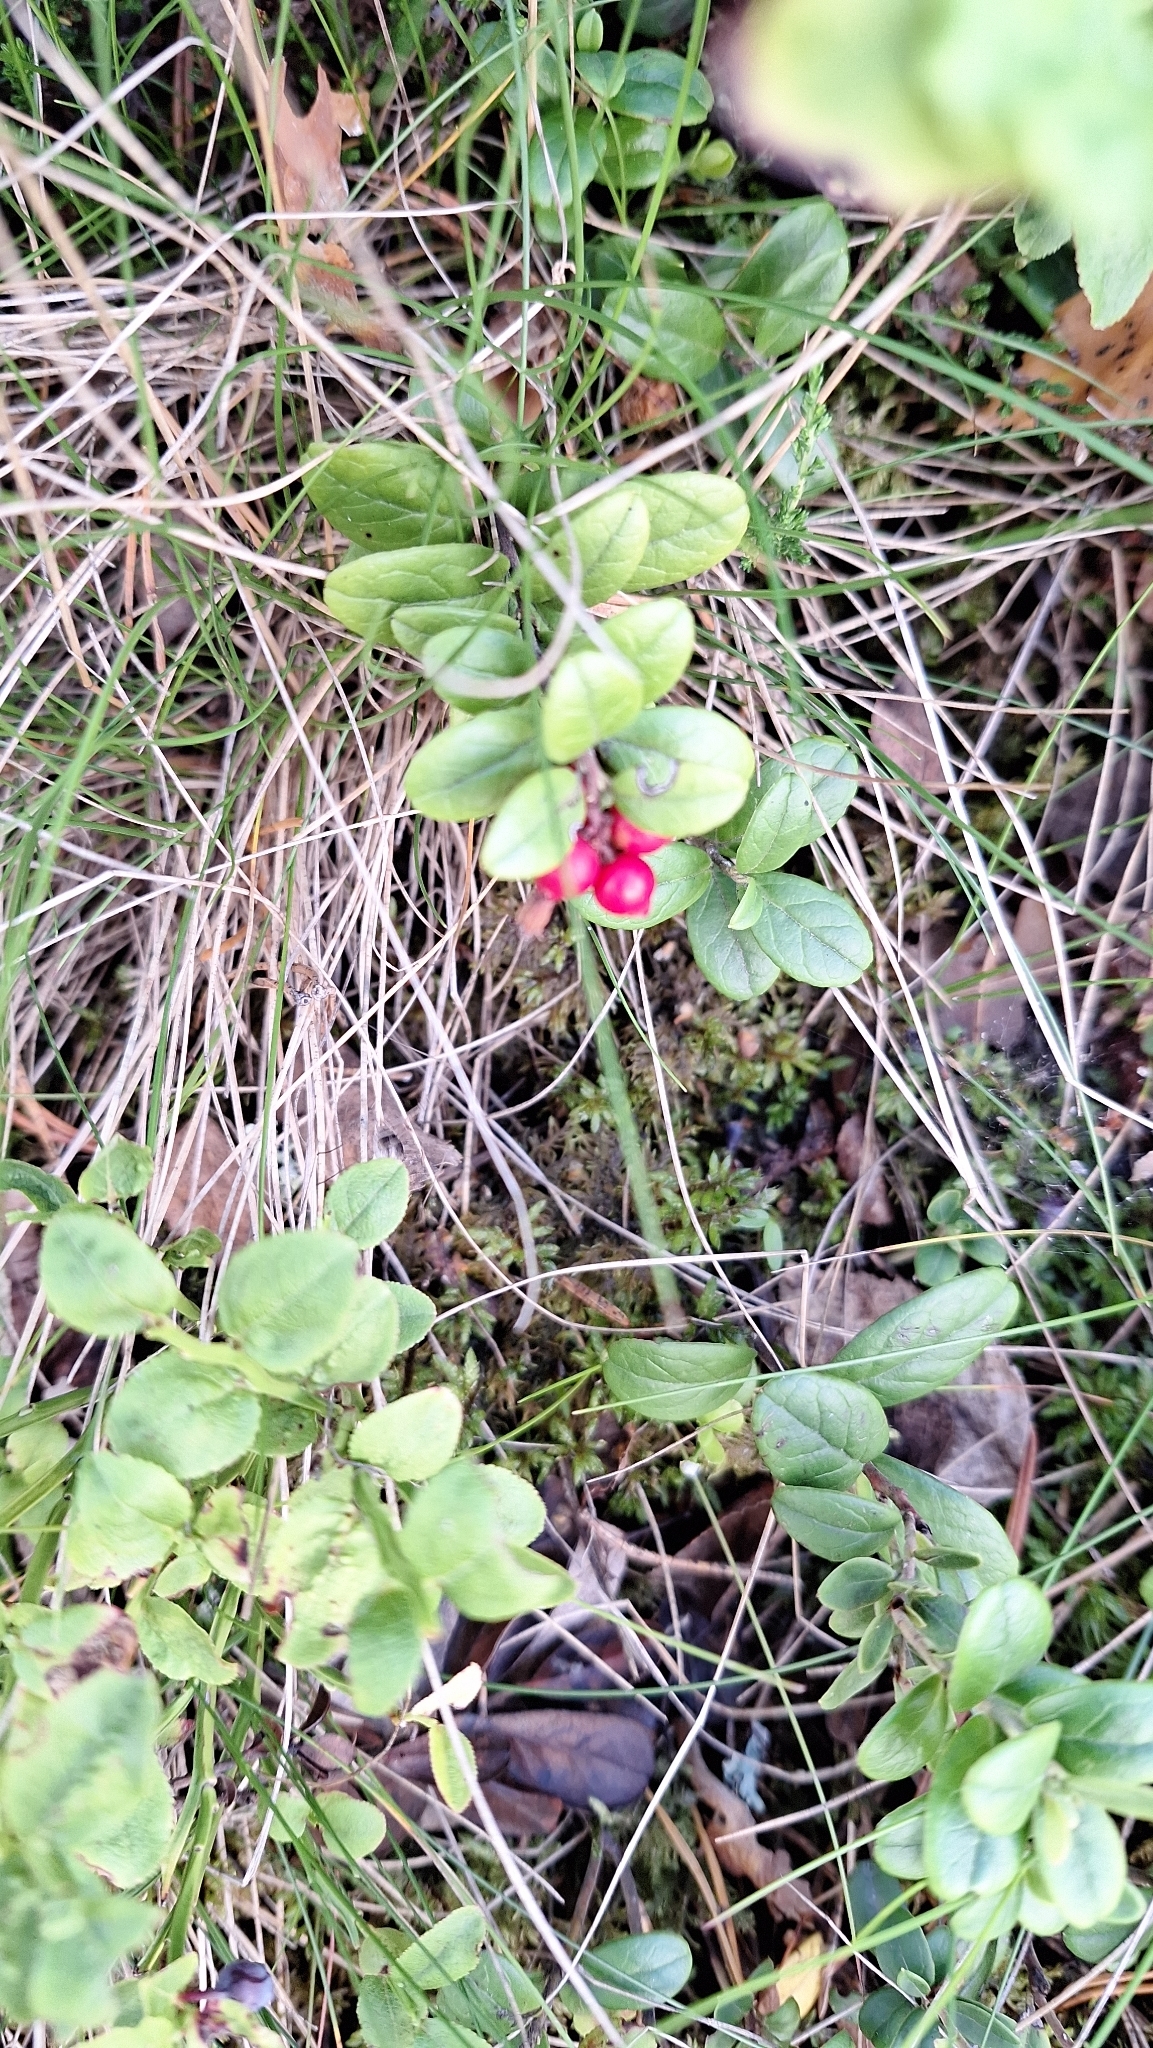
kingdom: Plantae
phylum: Tracheophyta
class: Magnoliopsida
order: Ericales
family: Ericaceae
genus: Vaccinium
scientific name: Vaccinium vitis-idaea
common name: Cowberry
